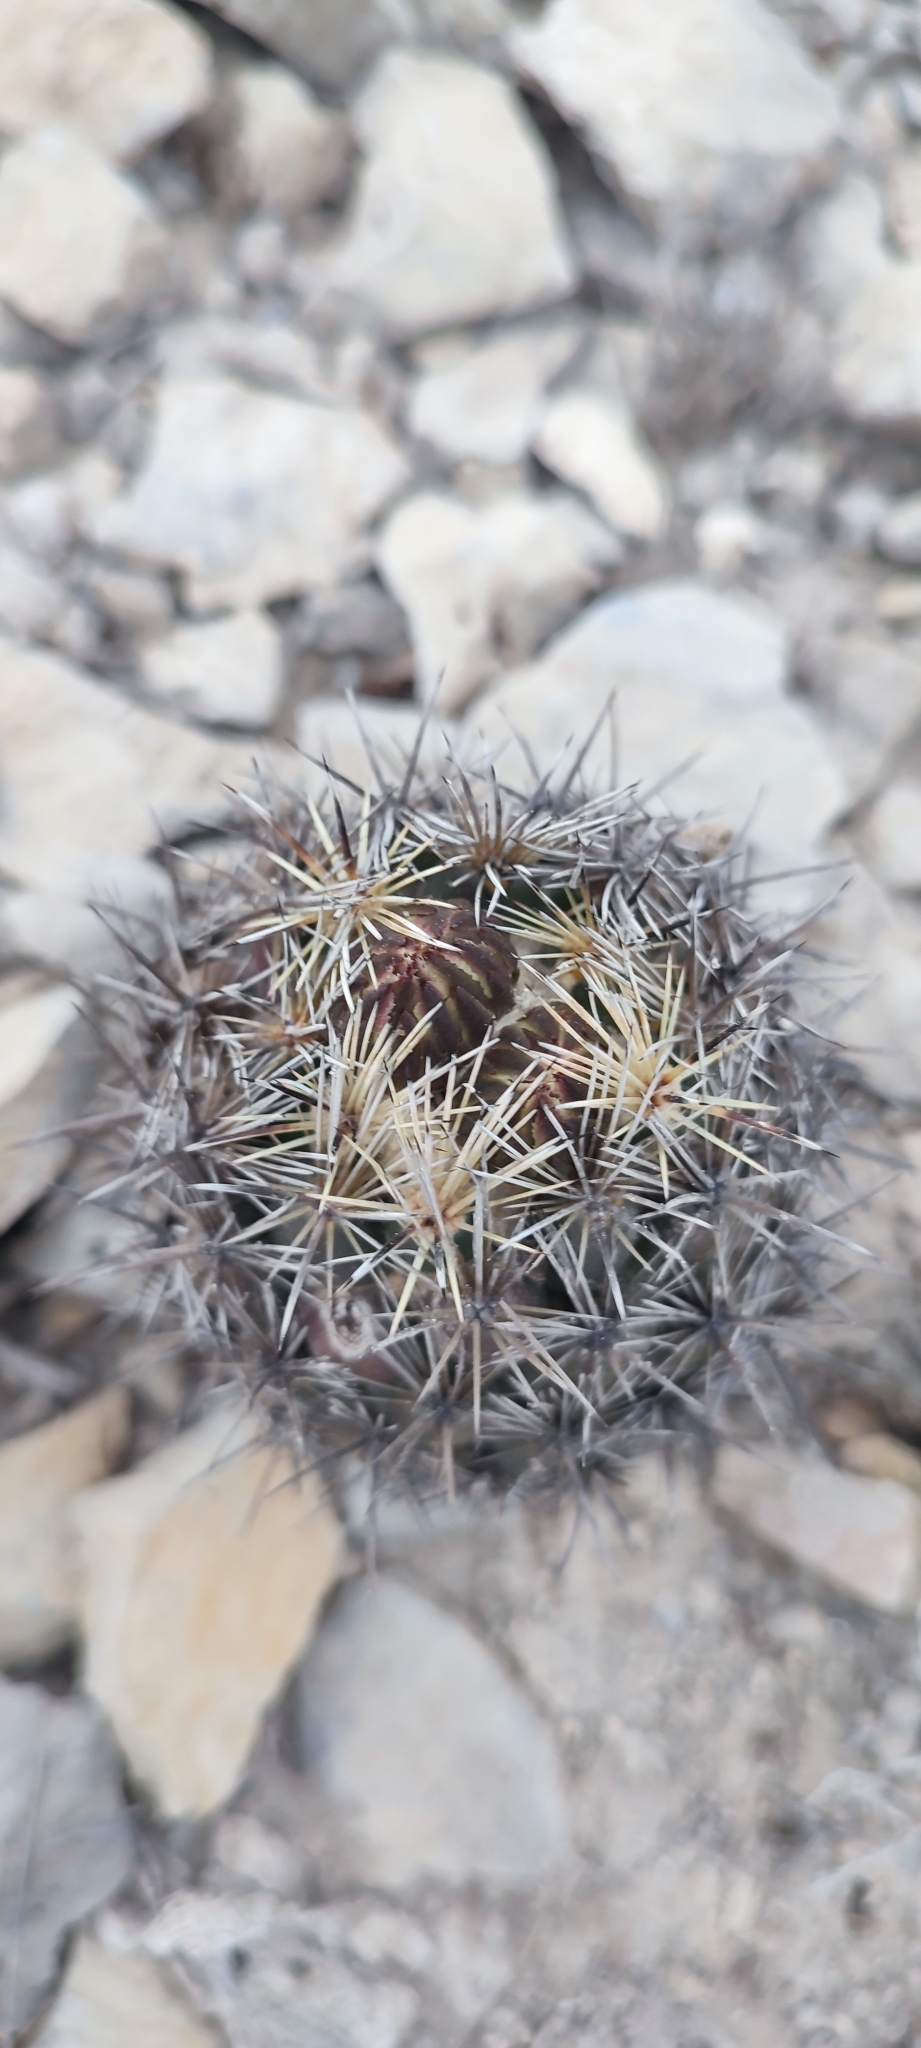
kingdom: Plantae
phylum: Tracheophyta
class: Magnoliopsida
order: Caryophyllales
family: Cactaceae
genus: Coryphantha
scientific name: Coryphantha salinensis
